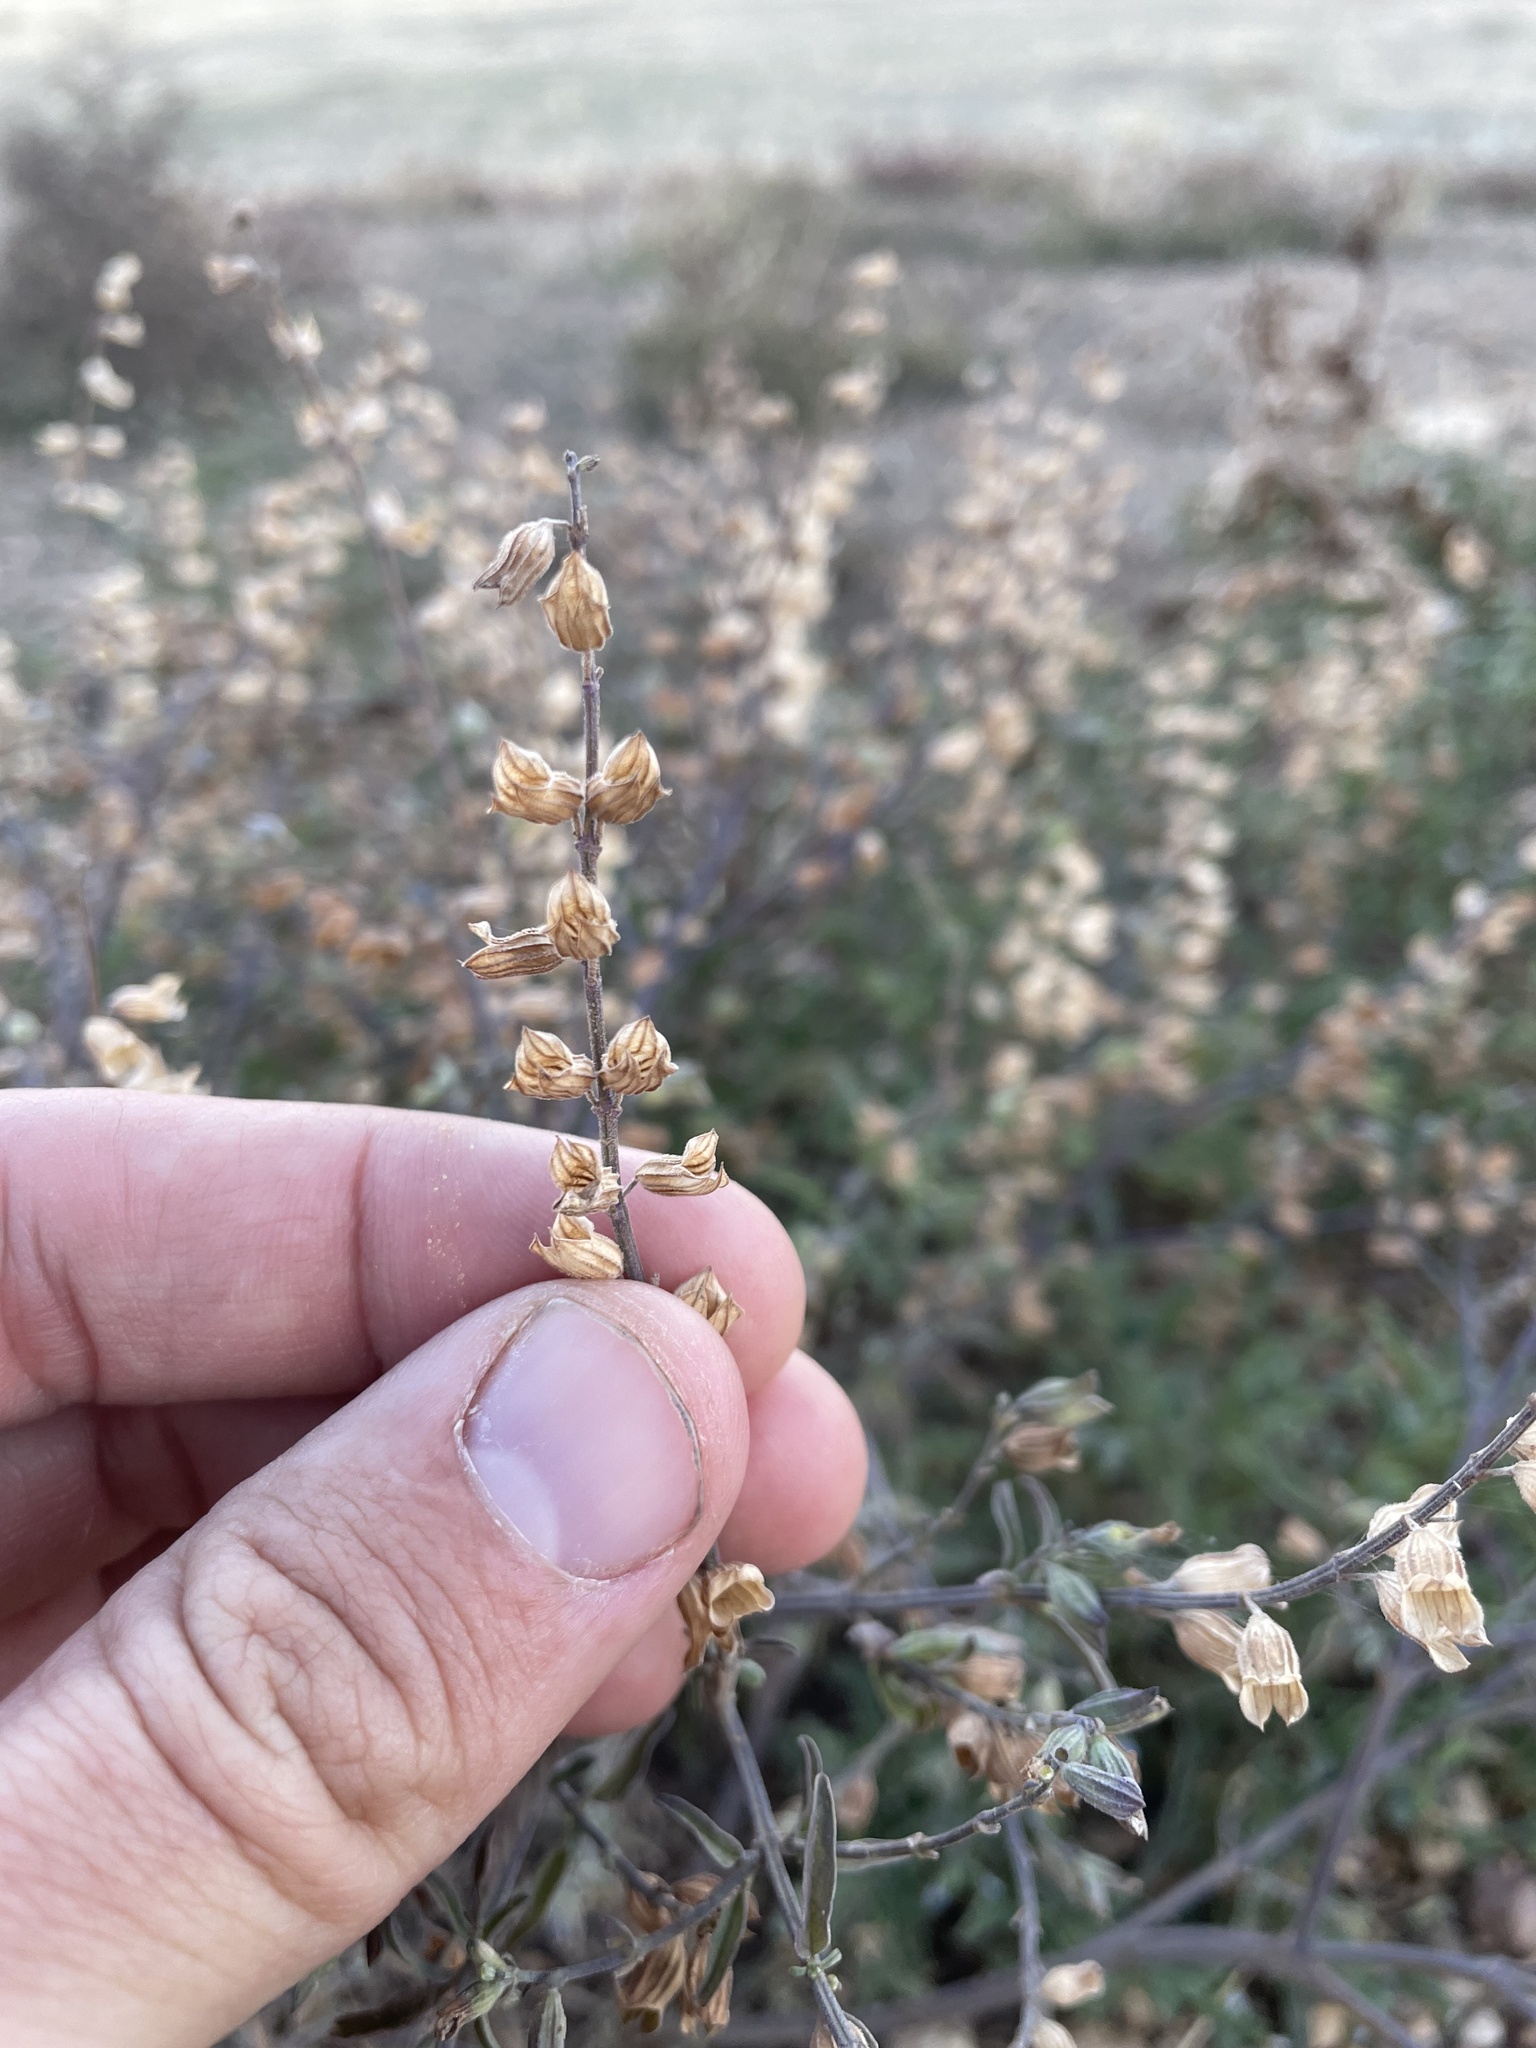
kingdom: Plantae
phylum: Tracheophyta
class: Magnoliopsida
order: Lamiales
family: Lamiaceae
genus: Salvia
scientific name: Salvia reflexa
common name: Mintweed
